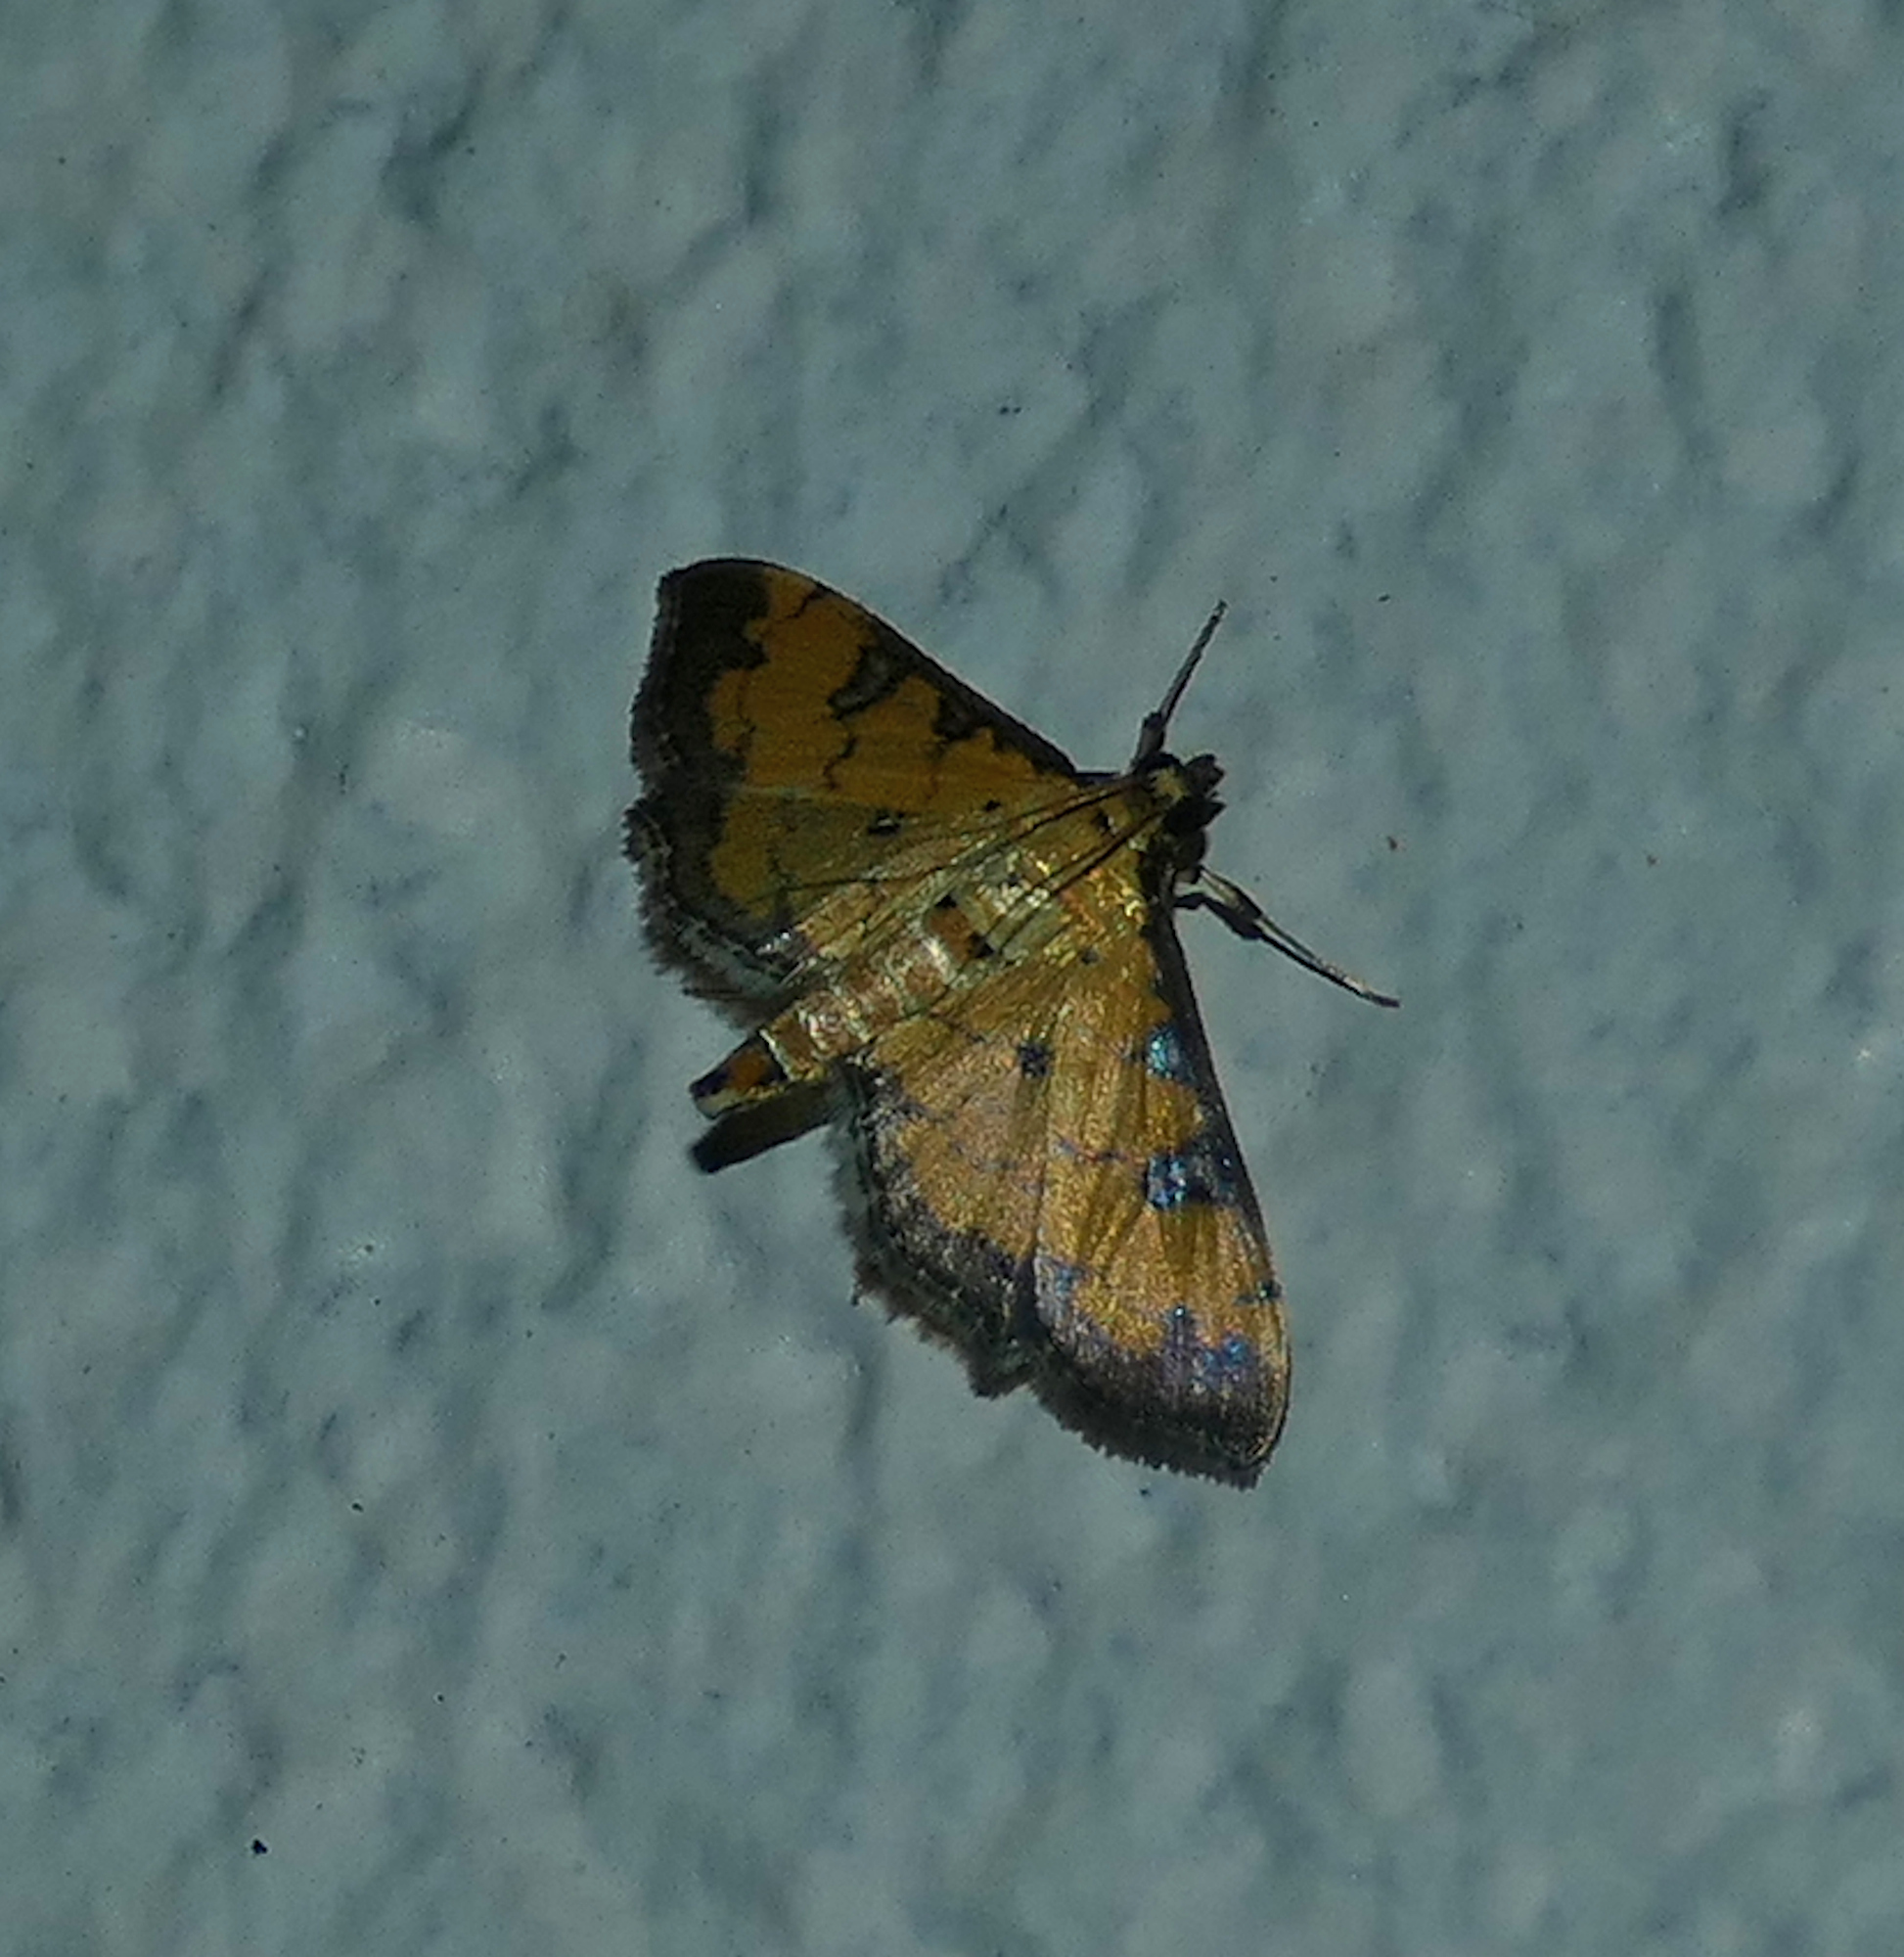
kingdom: Animalia
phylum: Arthropoda
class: Insecta
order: Lepidoptera
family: Crambidae
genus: Ategumia
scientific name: Ategumia ebulealis
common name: Moth
